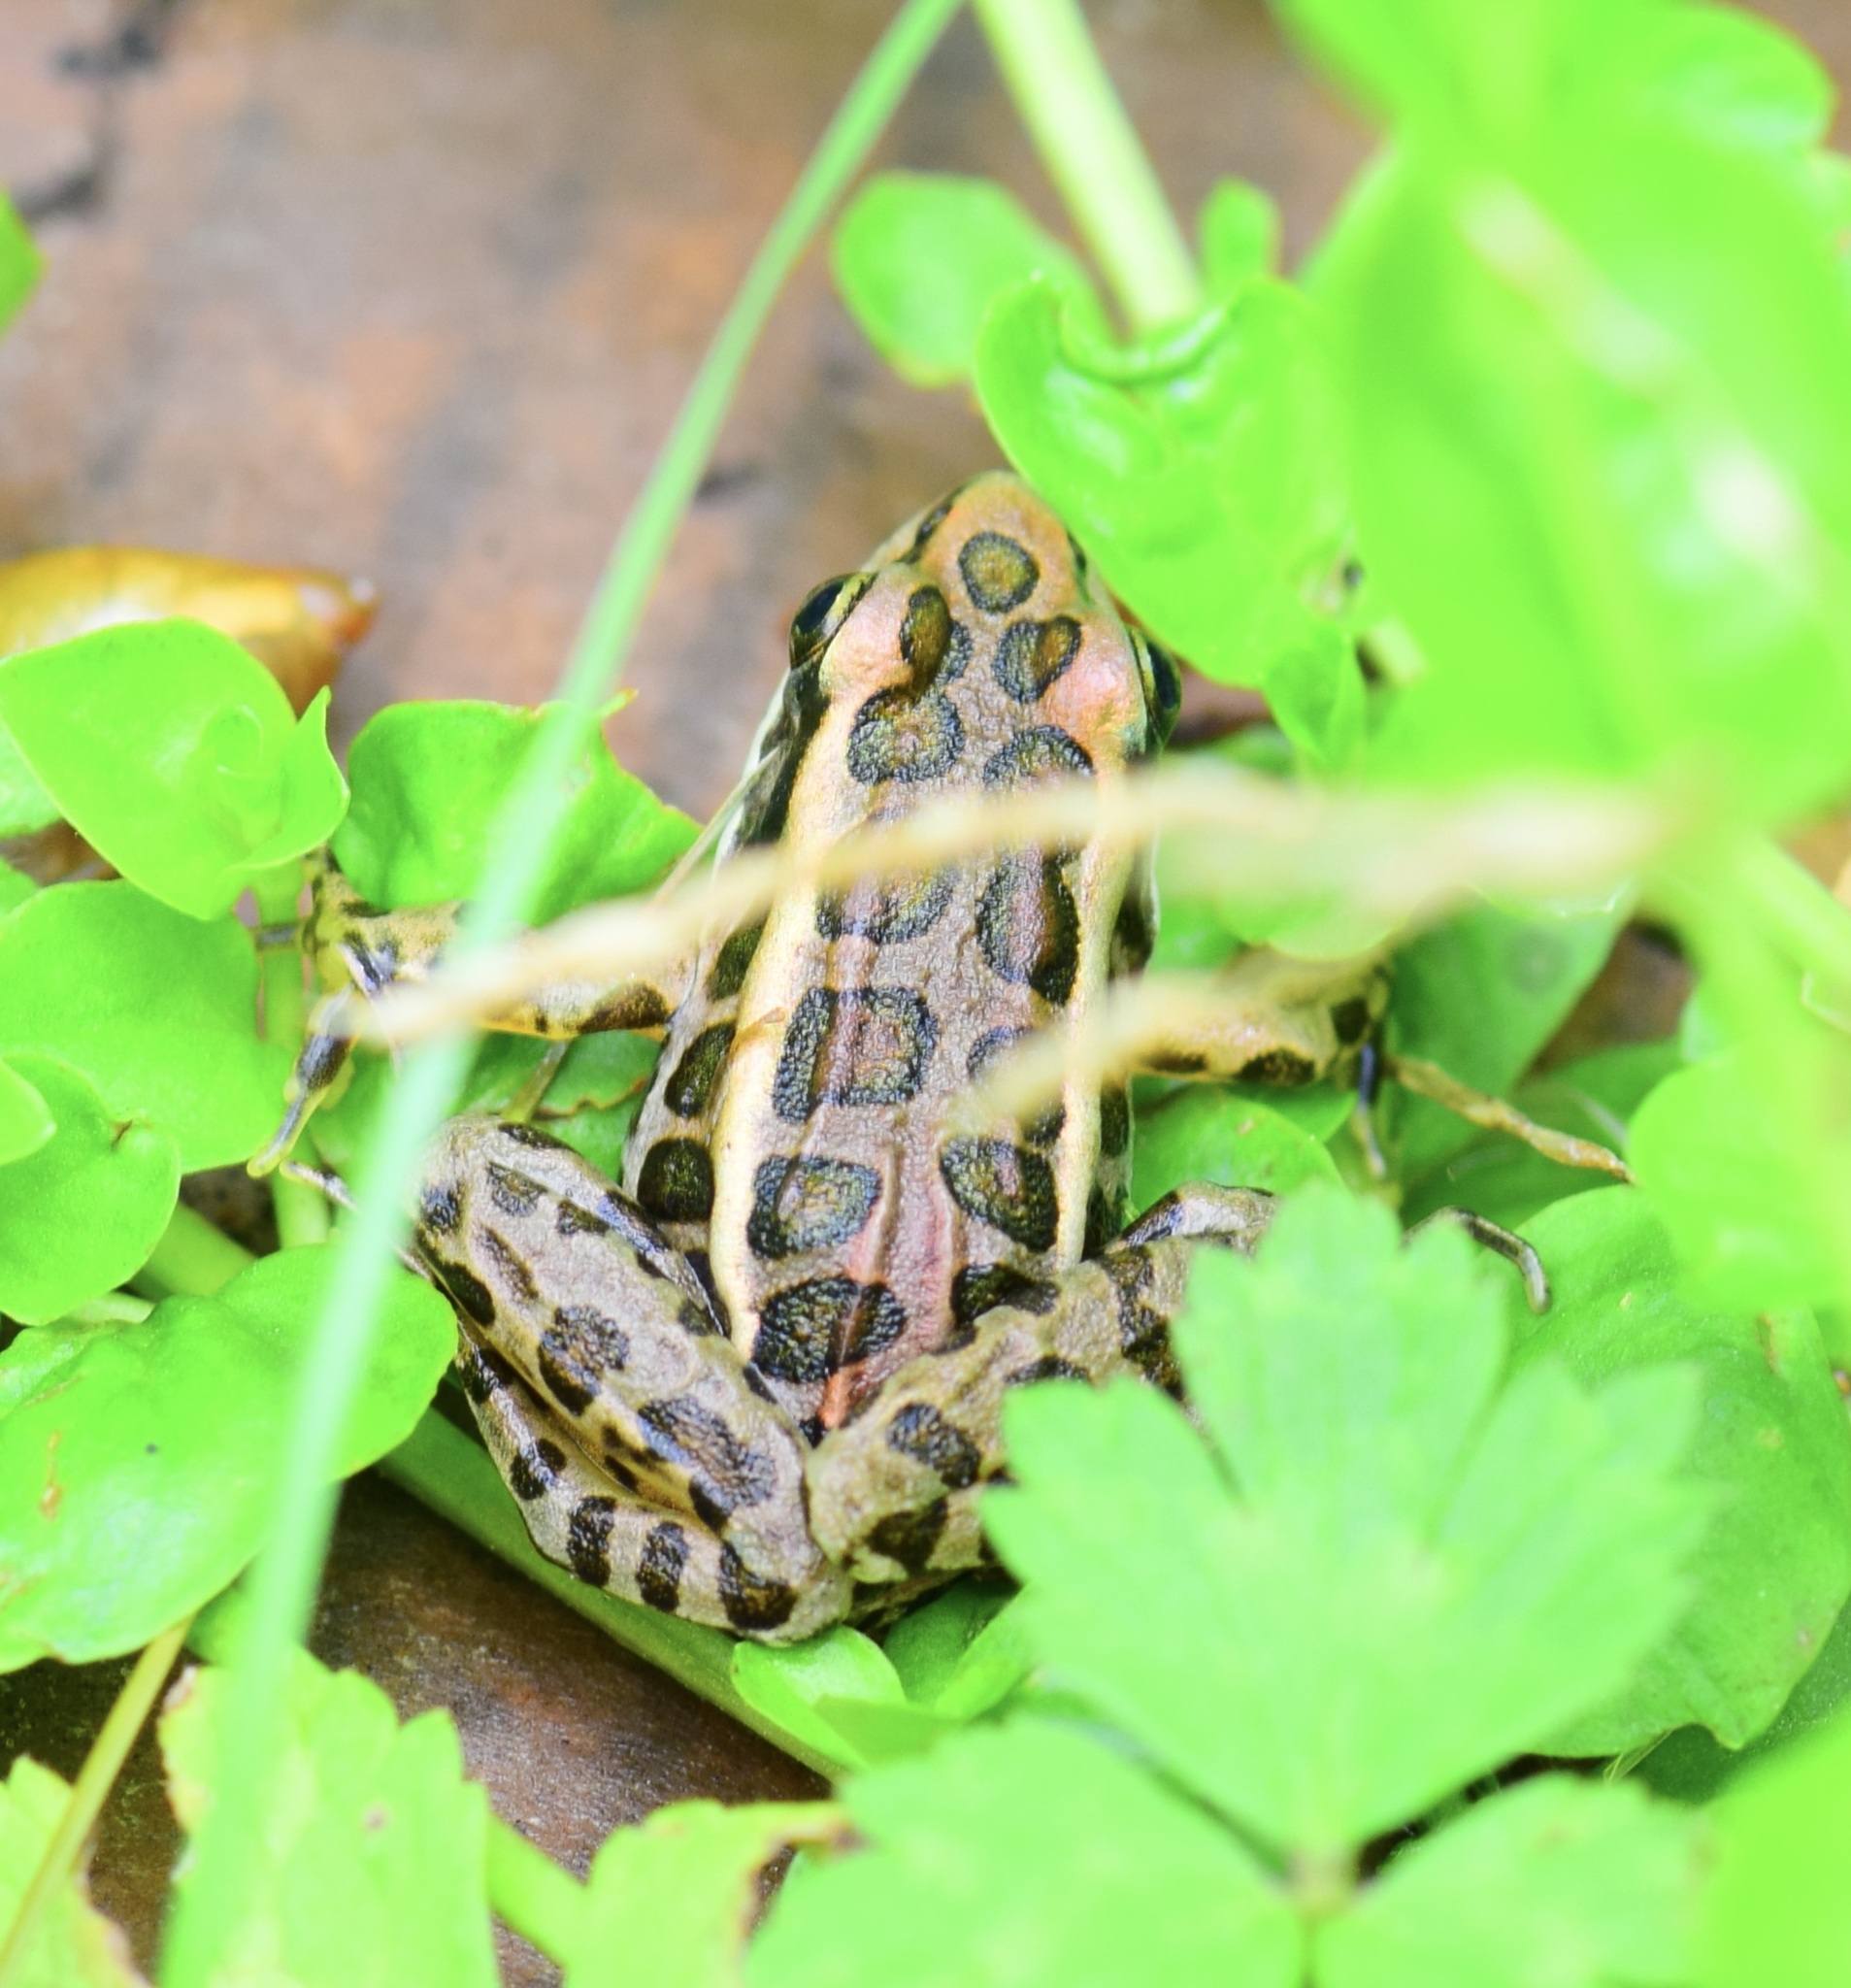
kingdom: Animalia
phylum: Chordata
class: Amphibia
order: Anura
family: Ranidae
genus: Lithobates
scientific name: Lithobates palustris
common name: Pickerel frog
